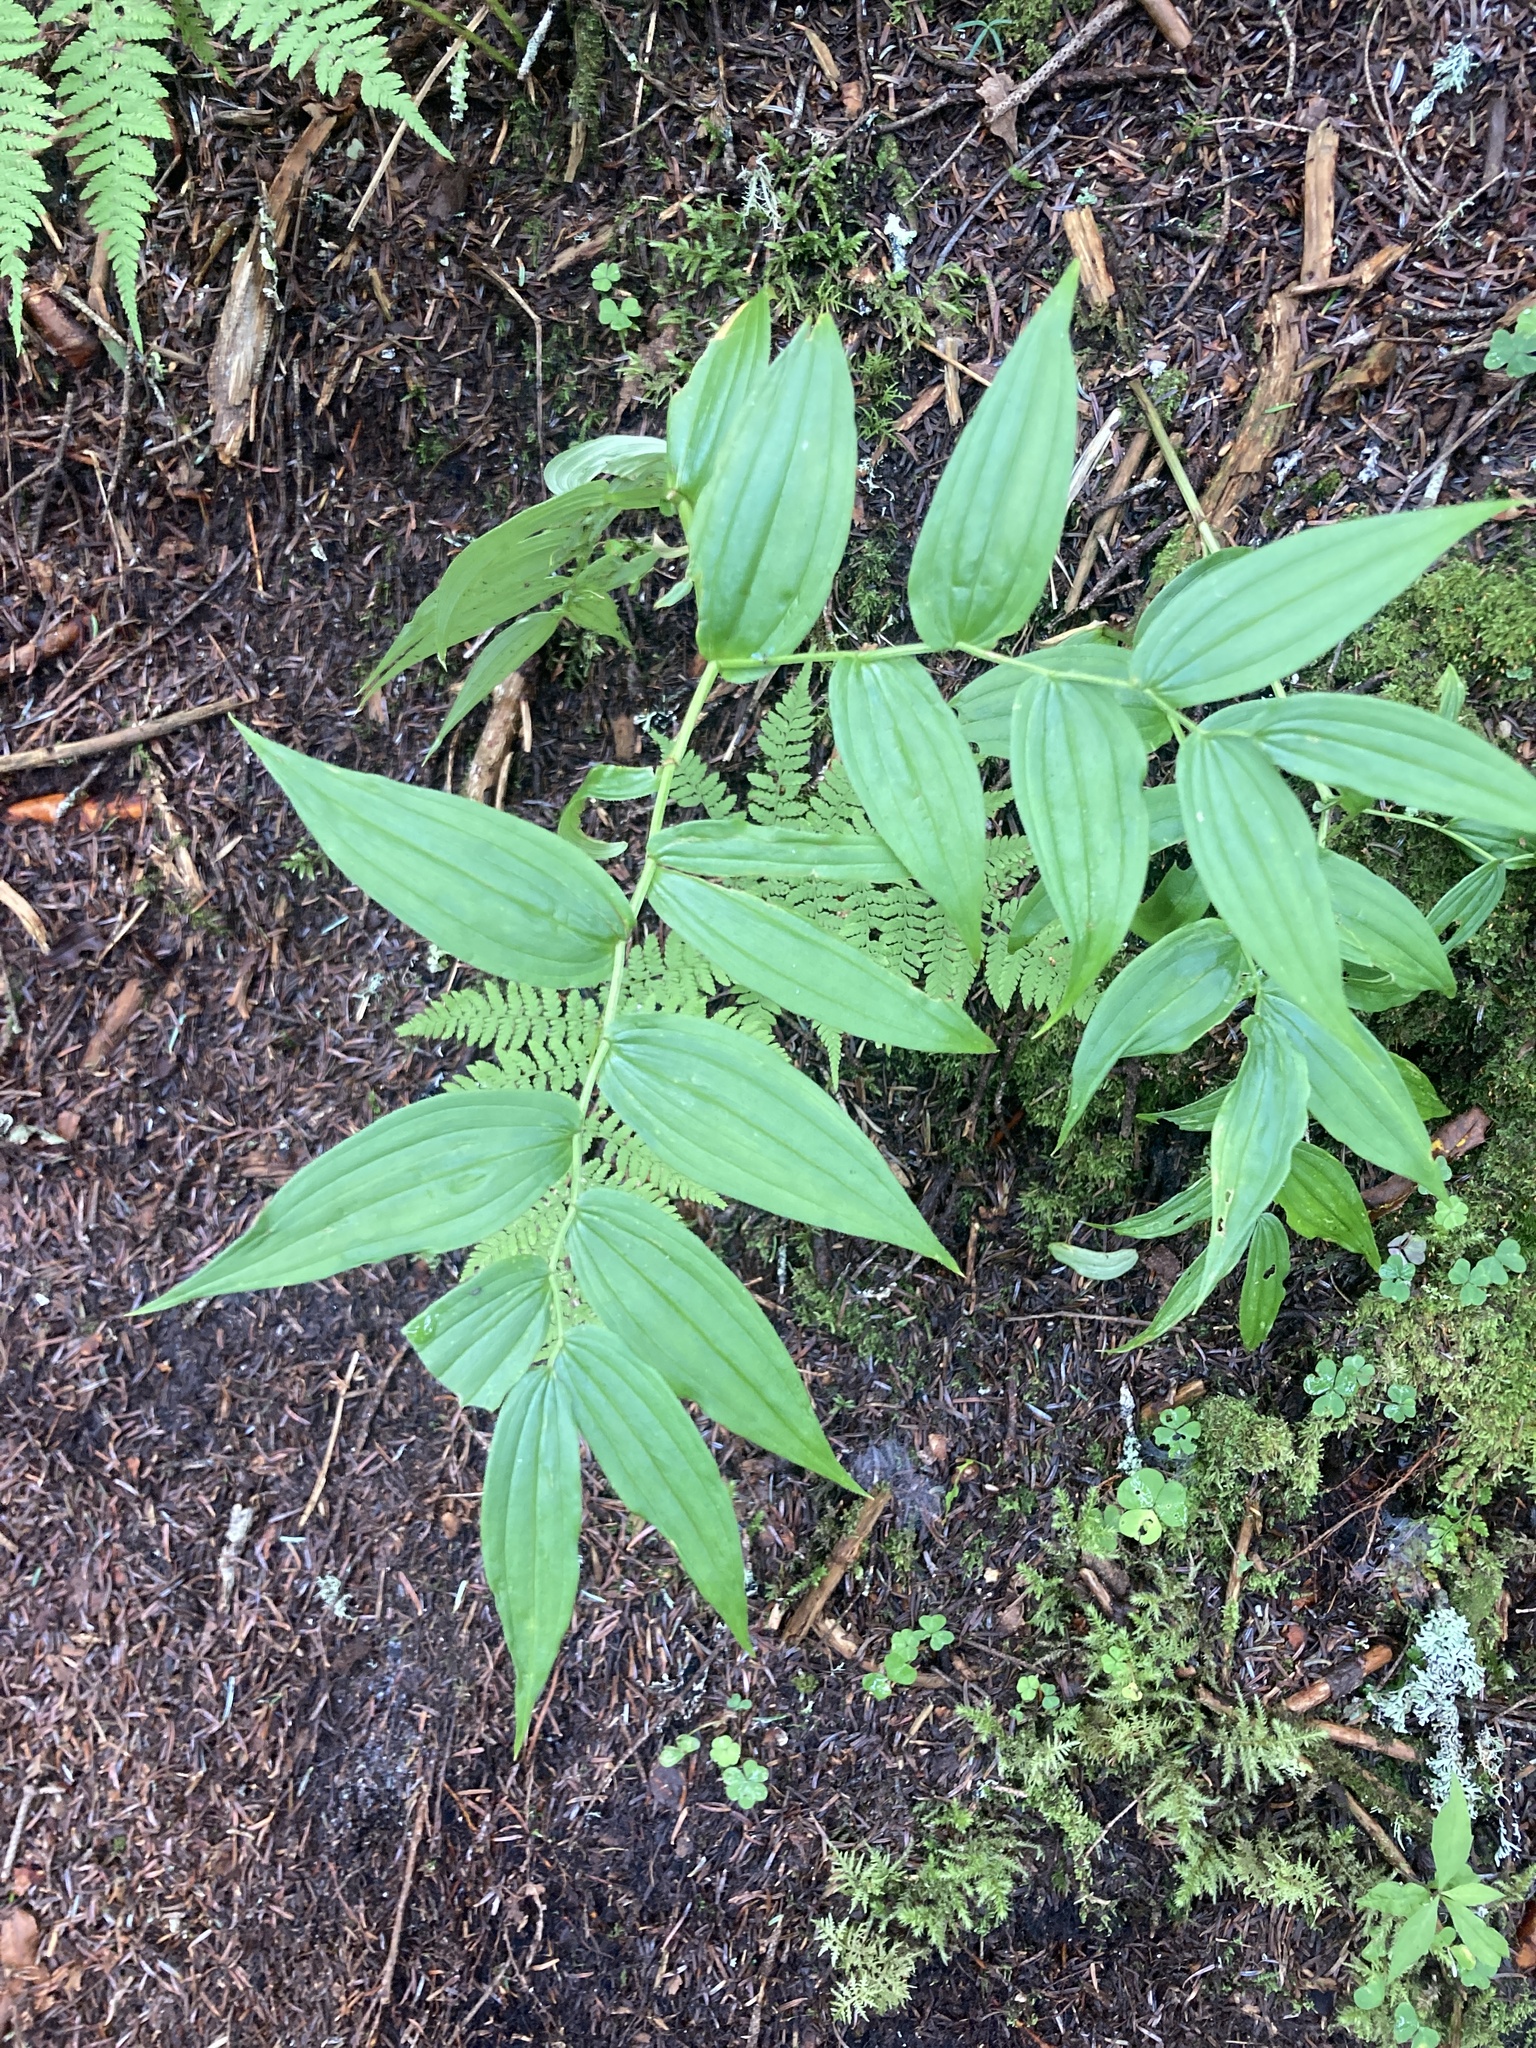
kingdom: Plantae
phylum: Tracheophyta
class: Liliopsida
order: Liliales
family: Liliaceae
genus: Streptopus
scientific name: Streptopus lanceolatus
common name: Rose mandarin
